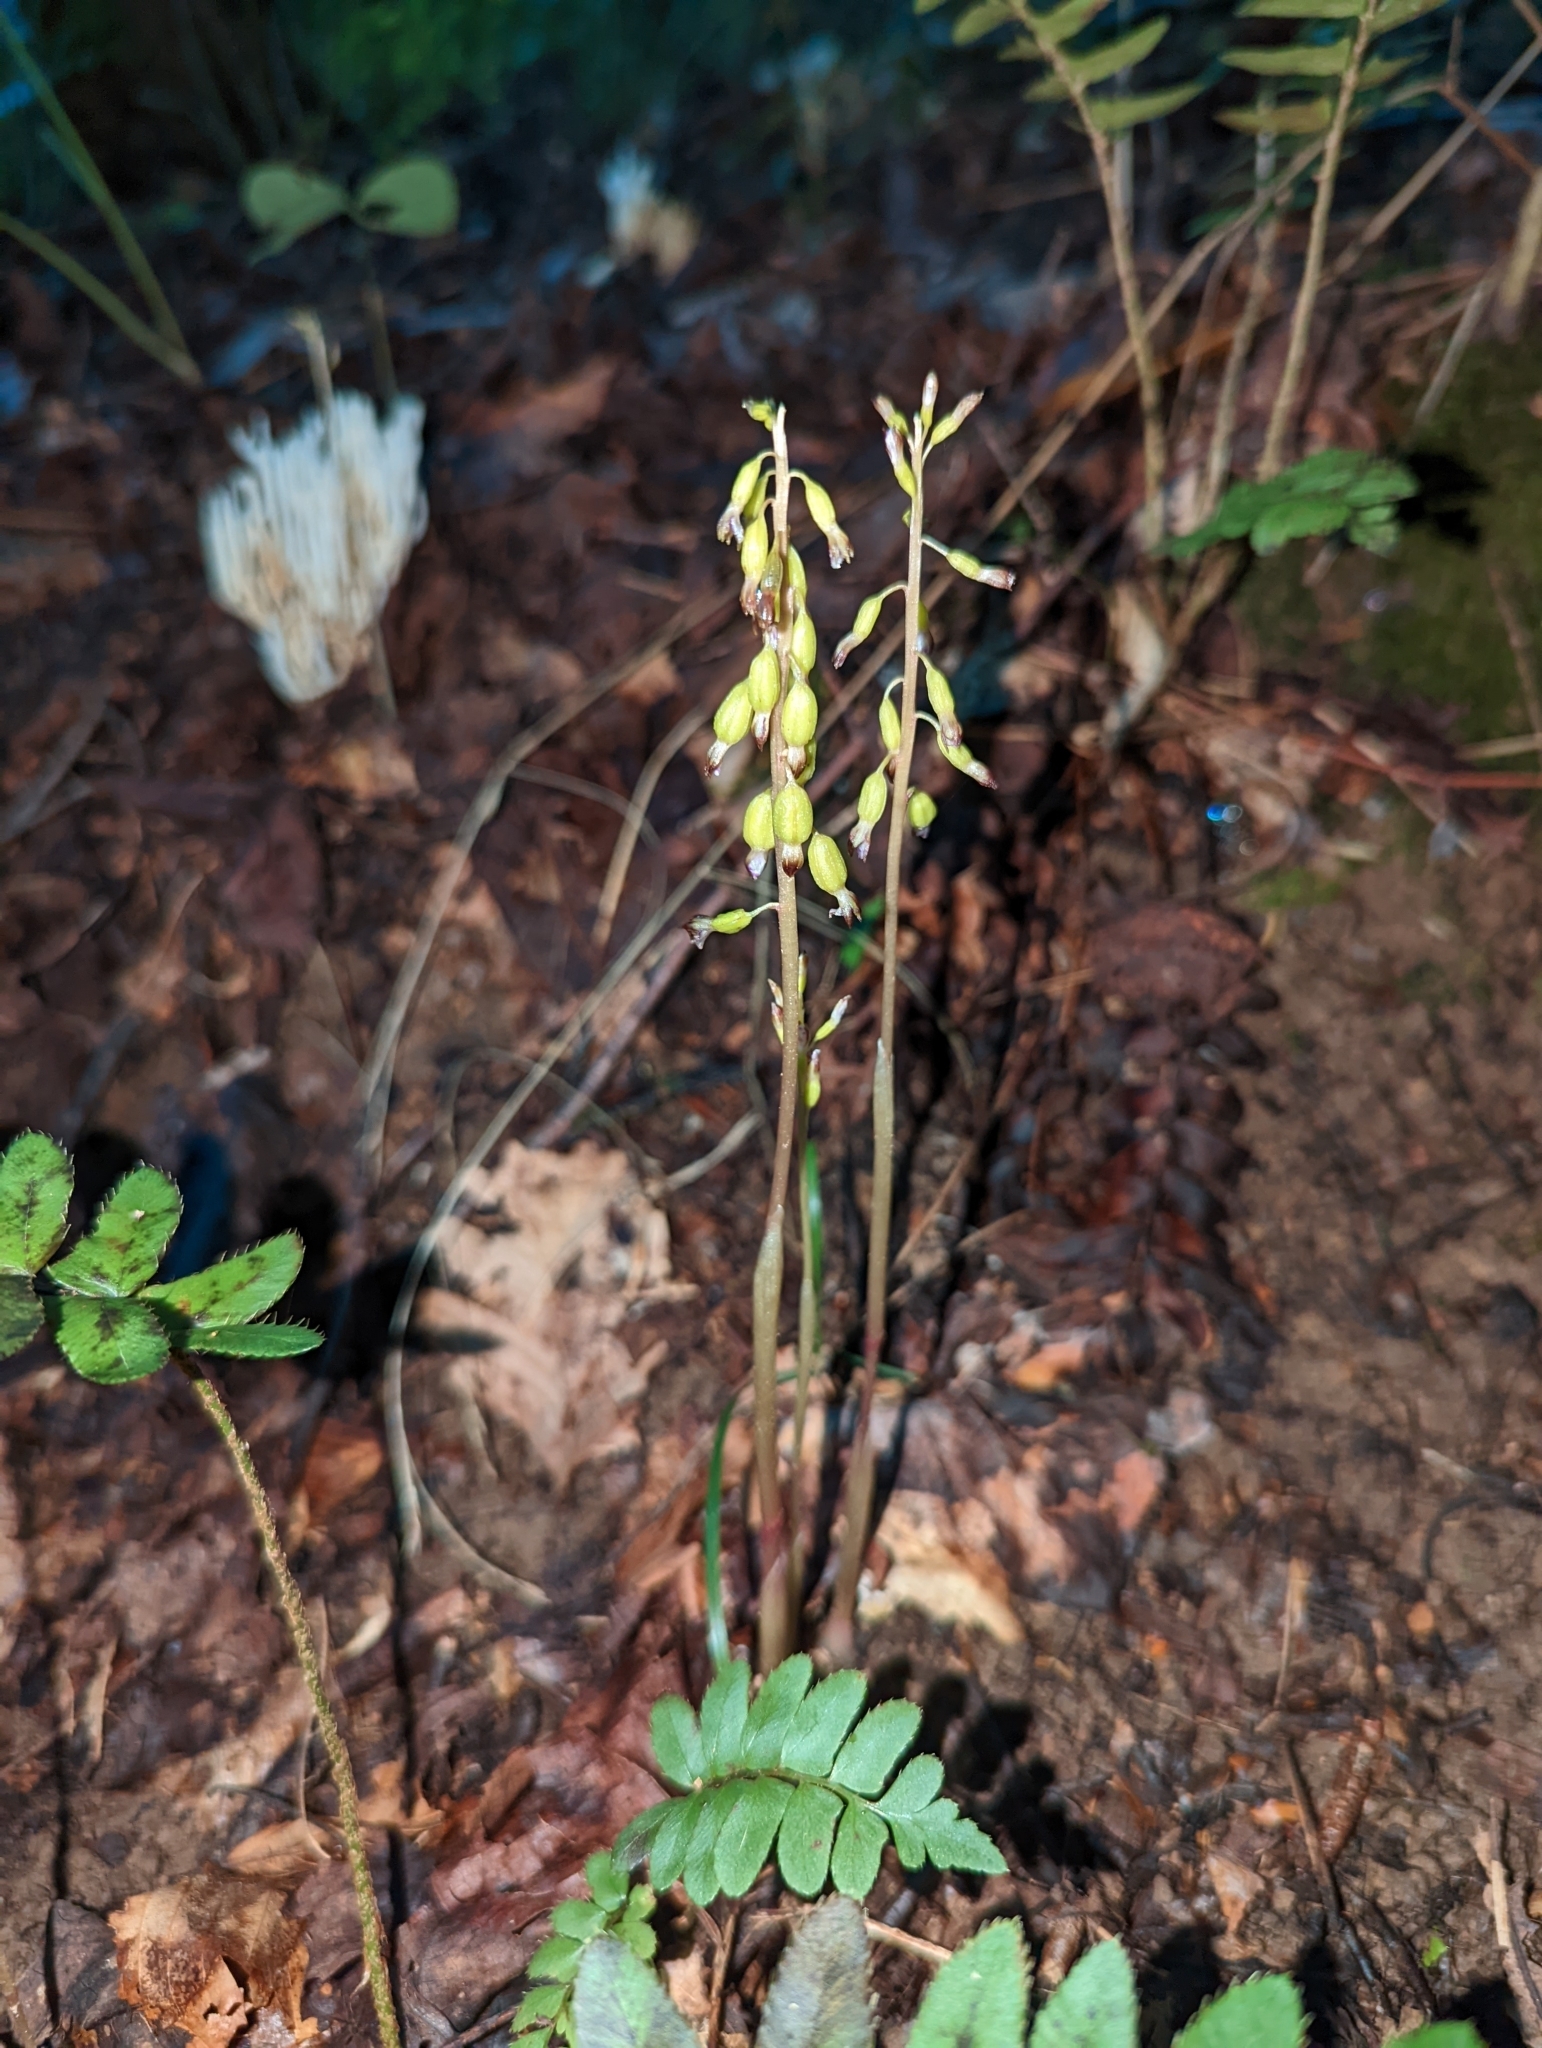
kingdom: Plantae
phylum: Tracheophyta
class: Liliopsida
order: Asparagales
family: Orchidaceae
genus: Corallorhiza
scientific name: Corallorhiza odontorhiza
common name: Autumn coralroot
